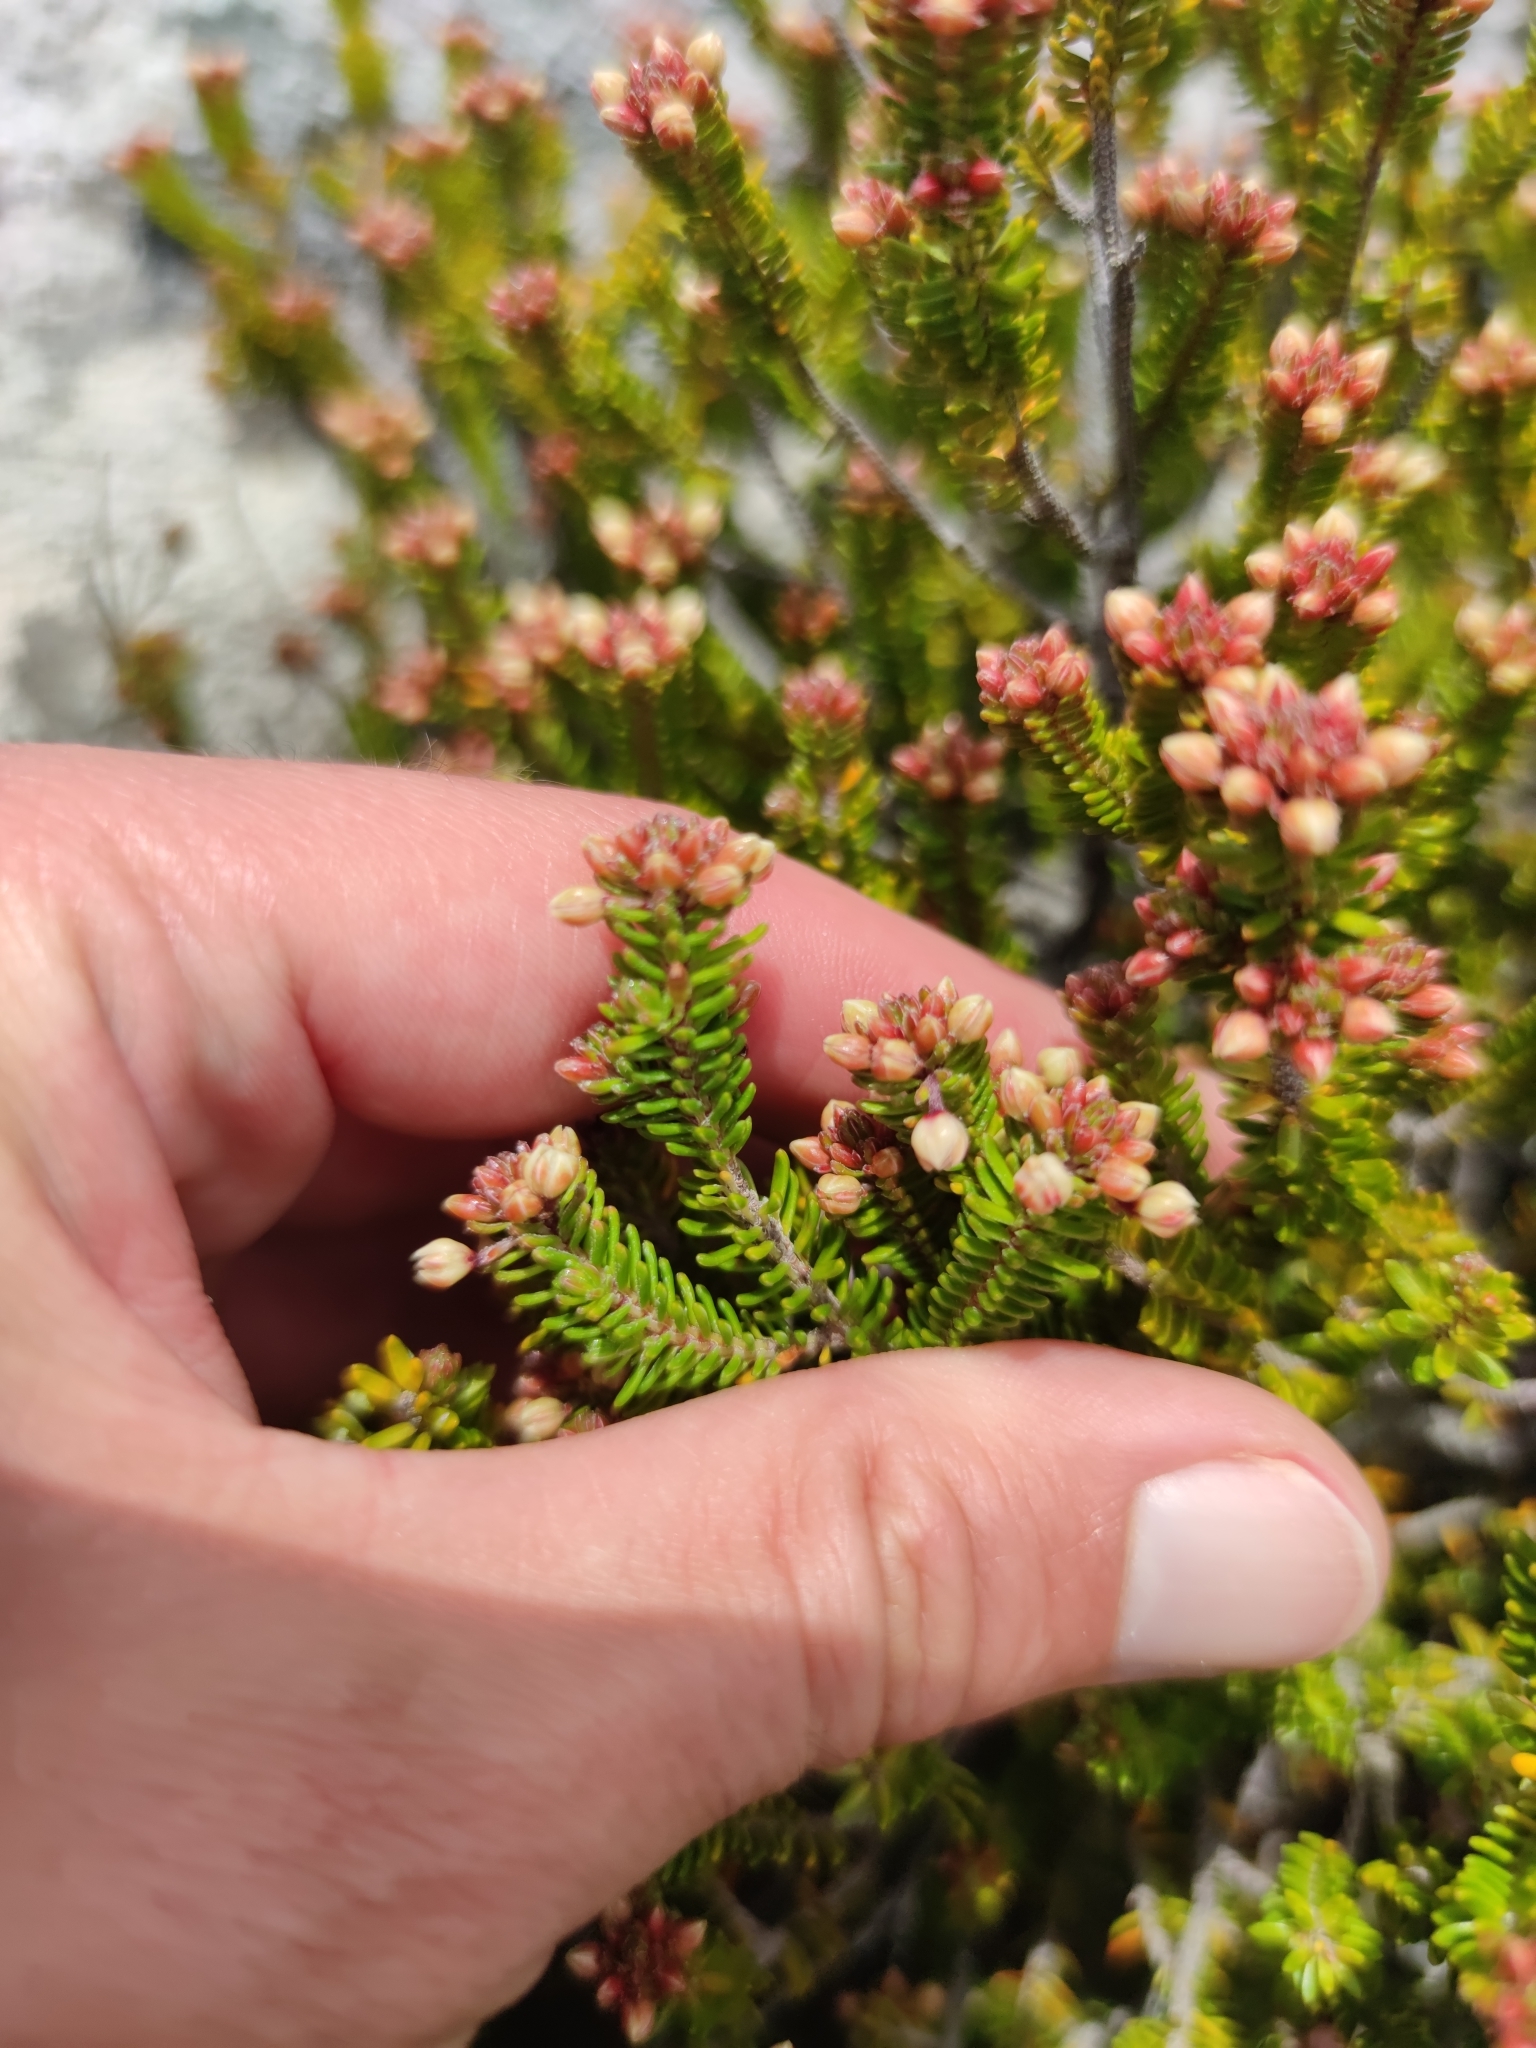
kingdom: Plantae
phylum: Tracheophyta
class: Magnoliopsida
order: Ericales
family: Ericaceae
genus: Erica
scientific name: Erica stokoei
